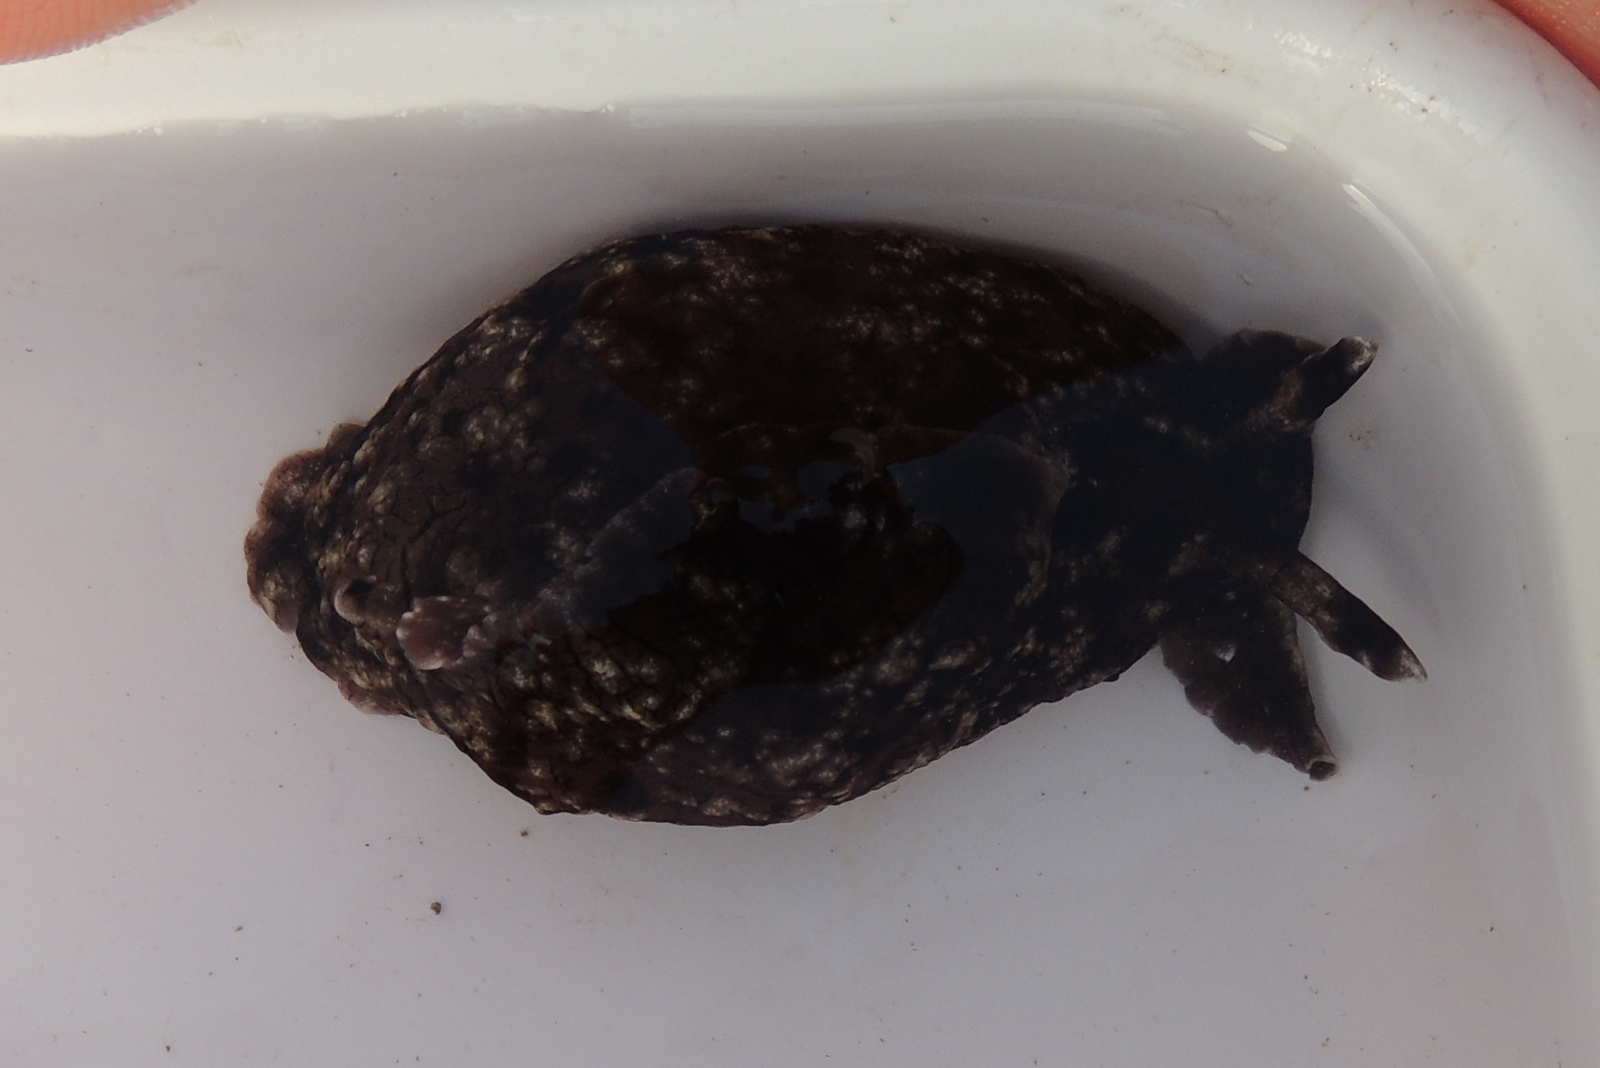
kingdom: Animalia
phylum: Mollusca
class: Gastropoda
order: Aplysiida
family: Aplysiidae
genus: Aplysia
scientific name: Aplysia californica
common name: California seahare
